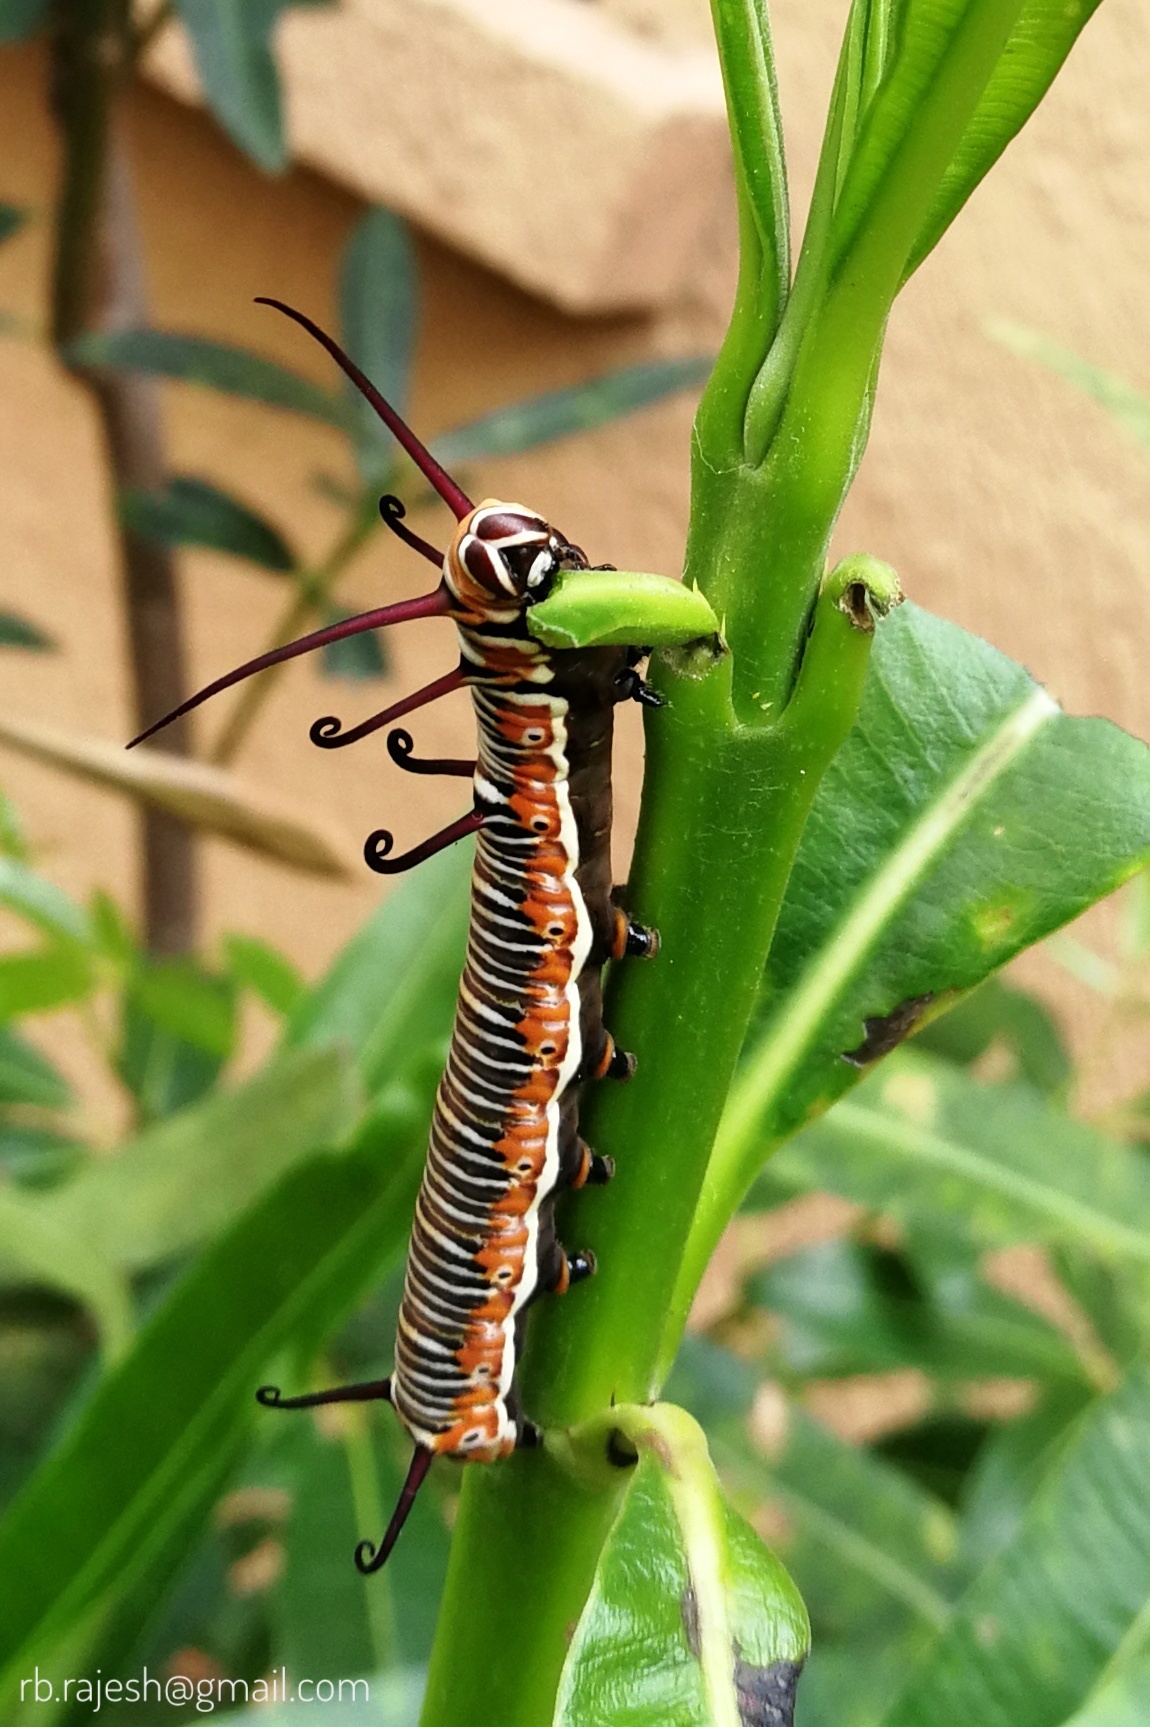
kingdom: Animalia
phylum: Arthropoda
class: Insecta
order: Lepidoptera
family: Nymphalidae
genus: Euploea
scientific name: Euploea core
